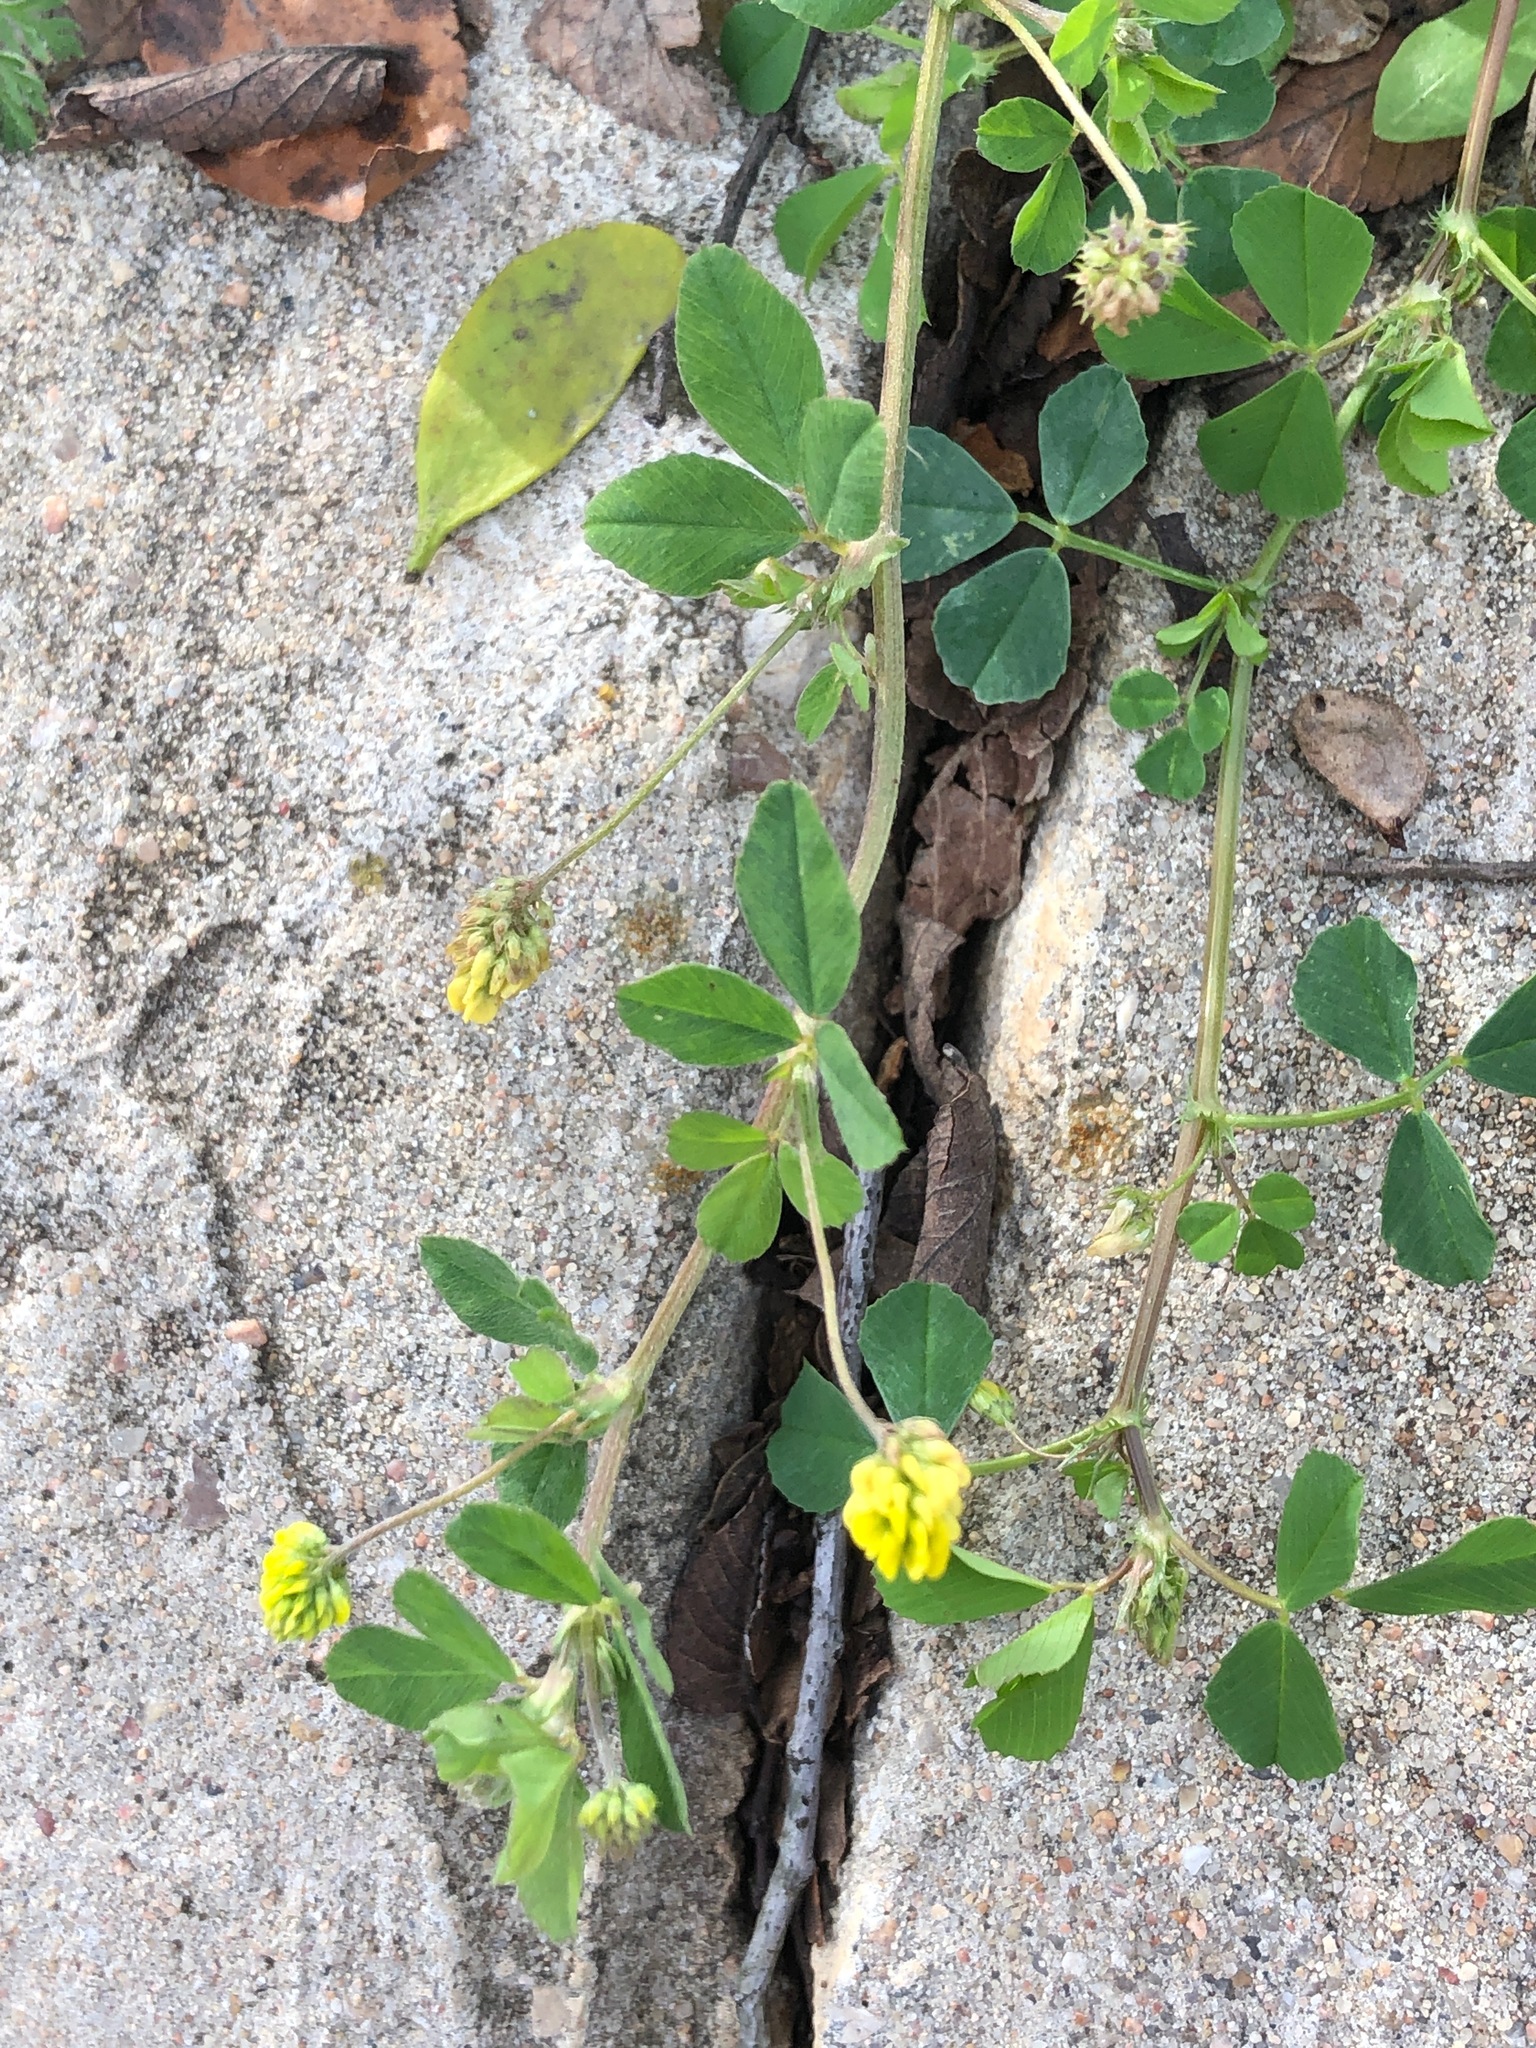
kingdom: Plantae
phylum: Tracheophyta
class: Magnoliopsida
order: Fabales
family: Fabaceae
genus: Medicago
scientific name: Medicago lupulina
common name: Black medick
